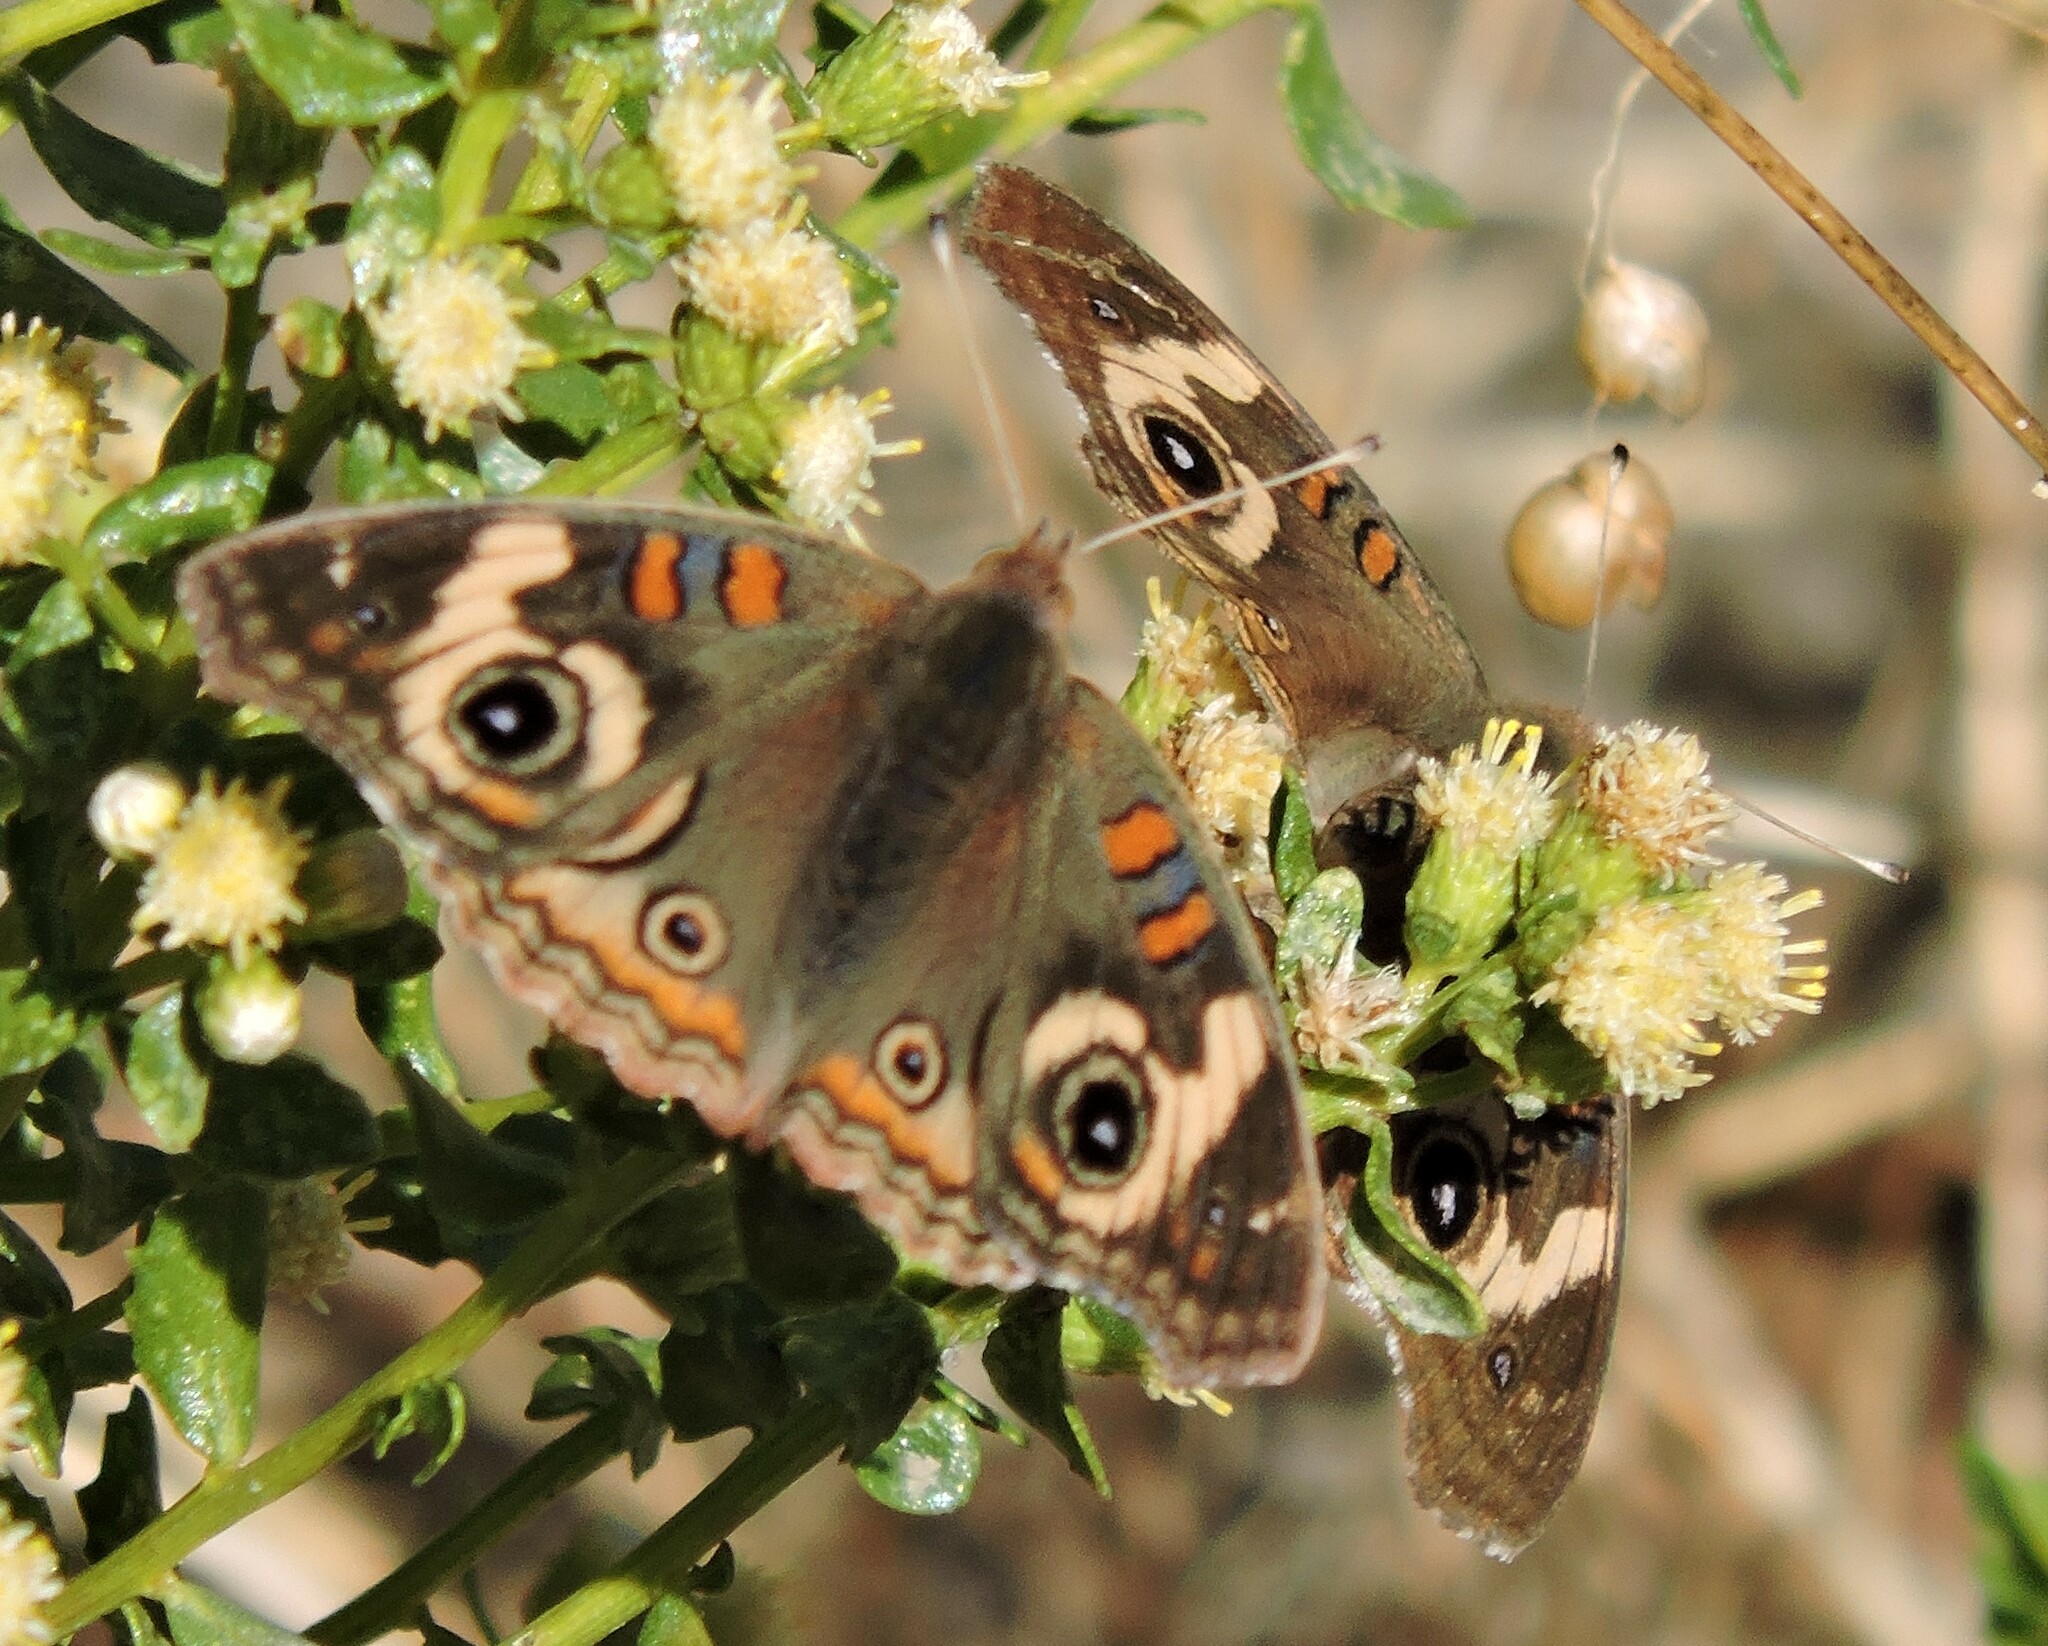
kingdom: Animalia
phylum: Arthropoda
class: Insecta
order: Lepidoptera
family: Nymphalidae
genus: Junonia
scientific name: Junonia grisea
